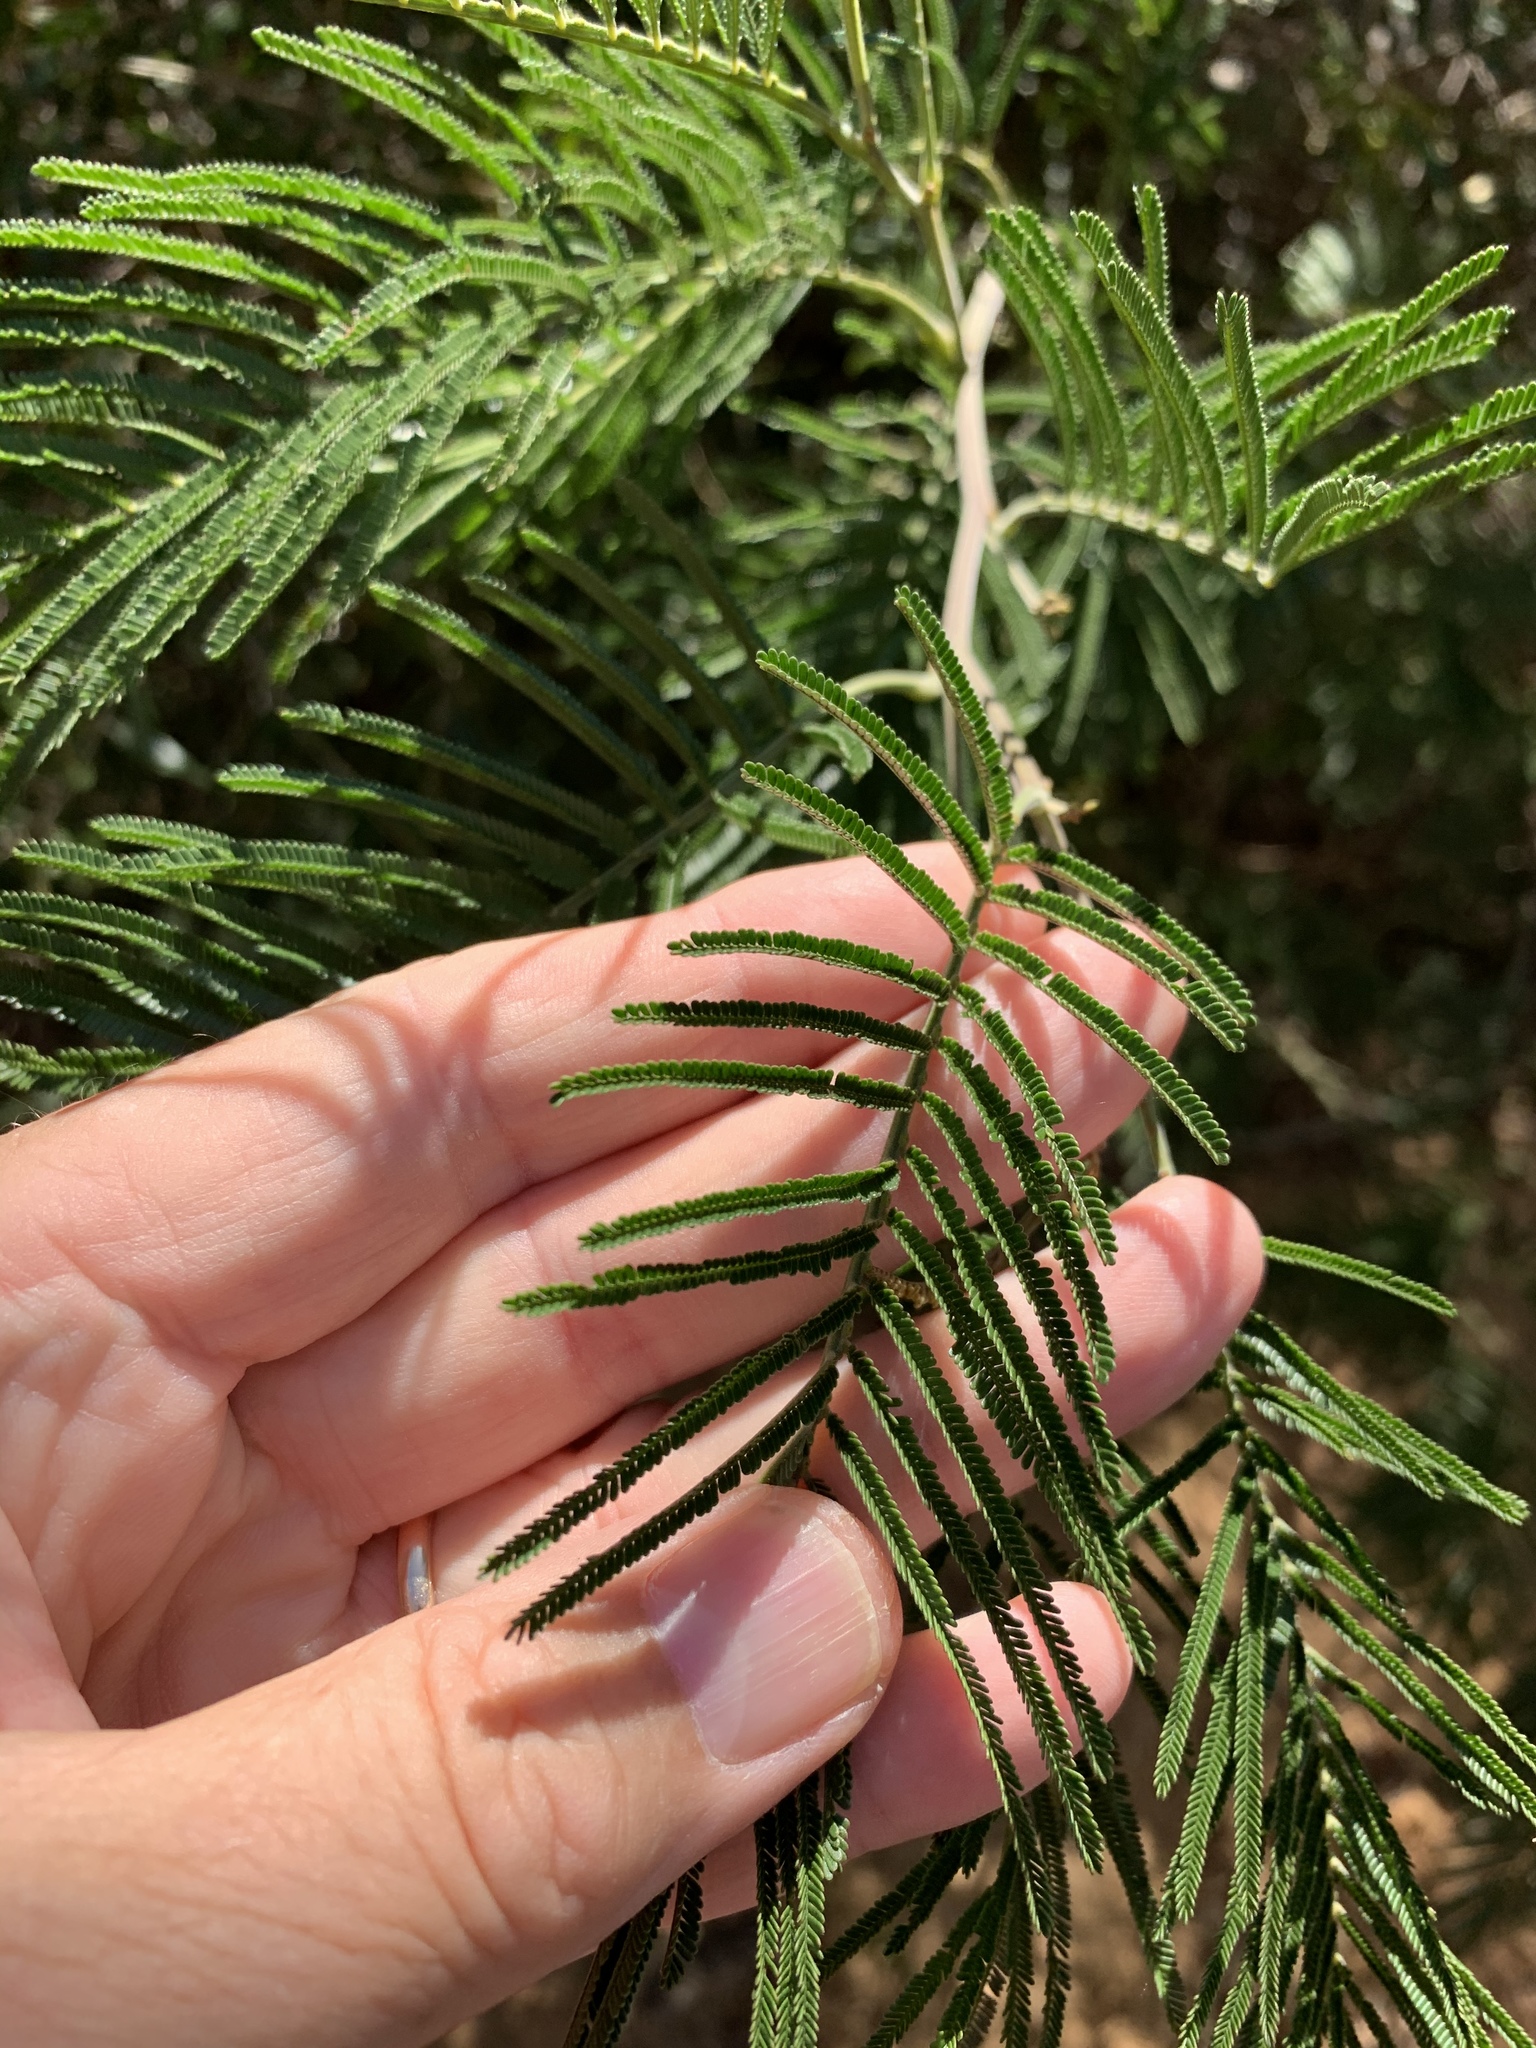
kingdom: Plantae
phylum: Tracheophyta
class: Magnoliopsida
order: Fabales
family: Fabaceae
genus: Acacia
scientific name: Acacia mearnsii
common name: Black wattle
